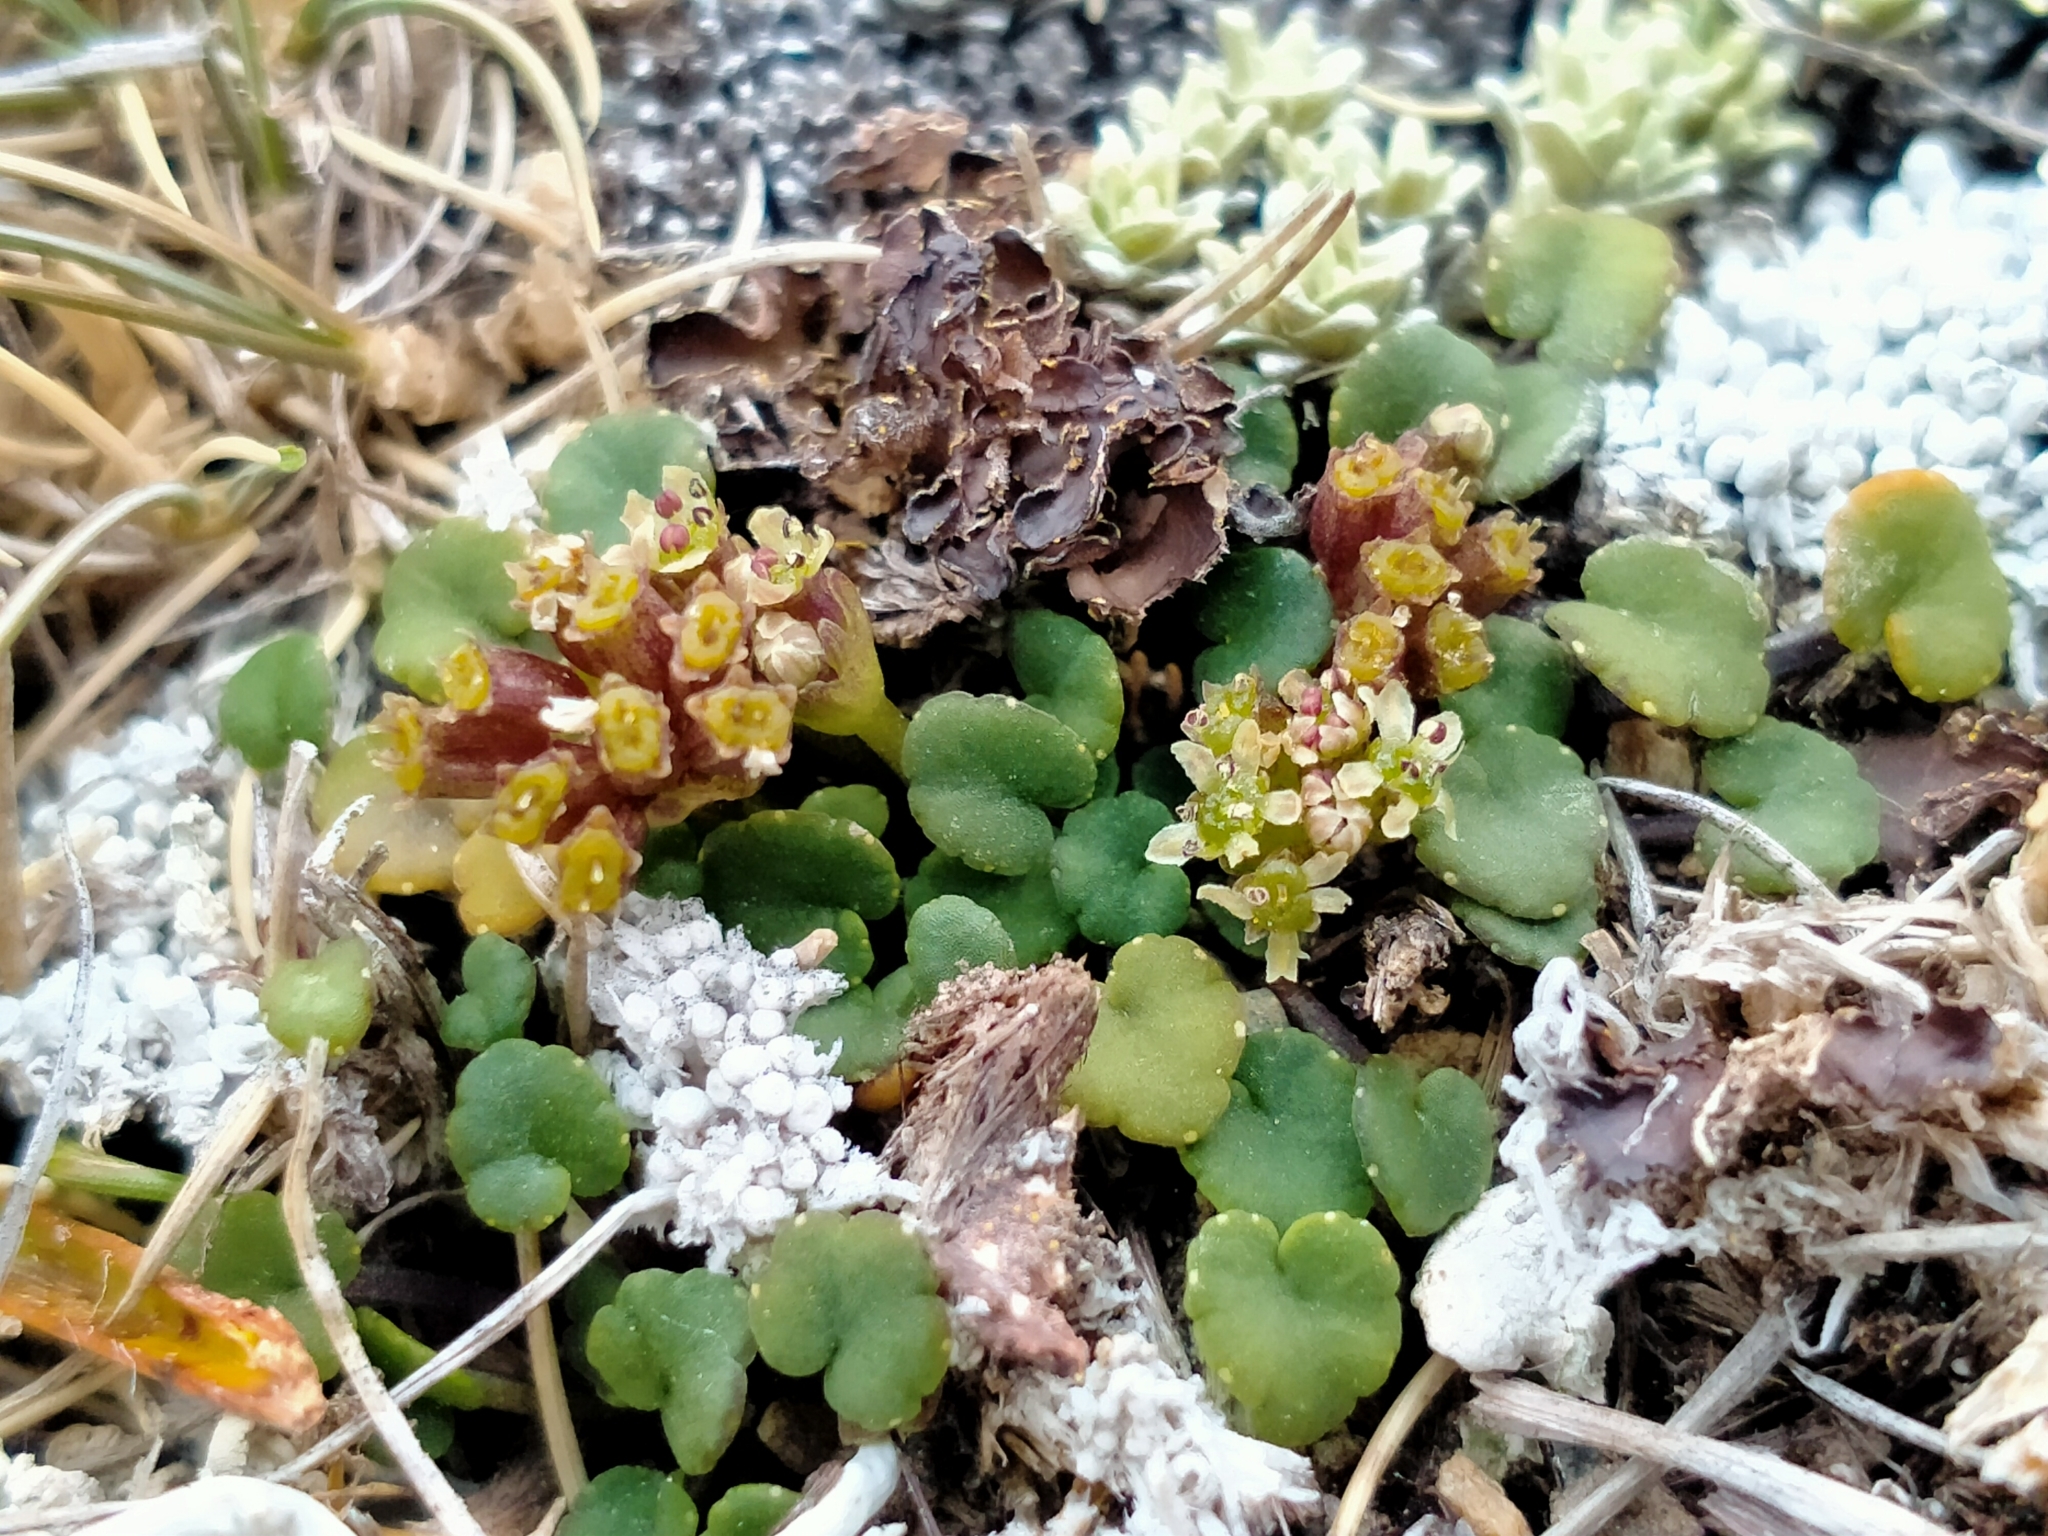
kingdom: Plantae
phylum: Tracheophyta
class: Magnoliopsida
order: Apiales
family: Apiaceae
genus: Azorella
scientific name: Azorella exigua
